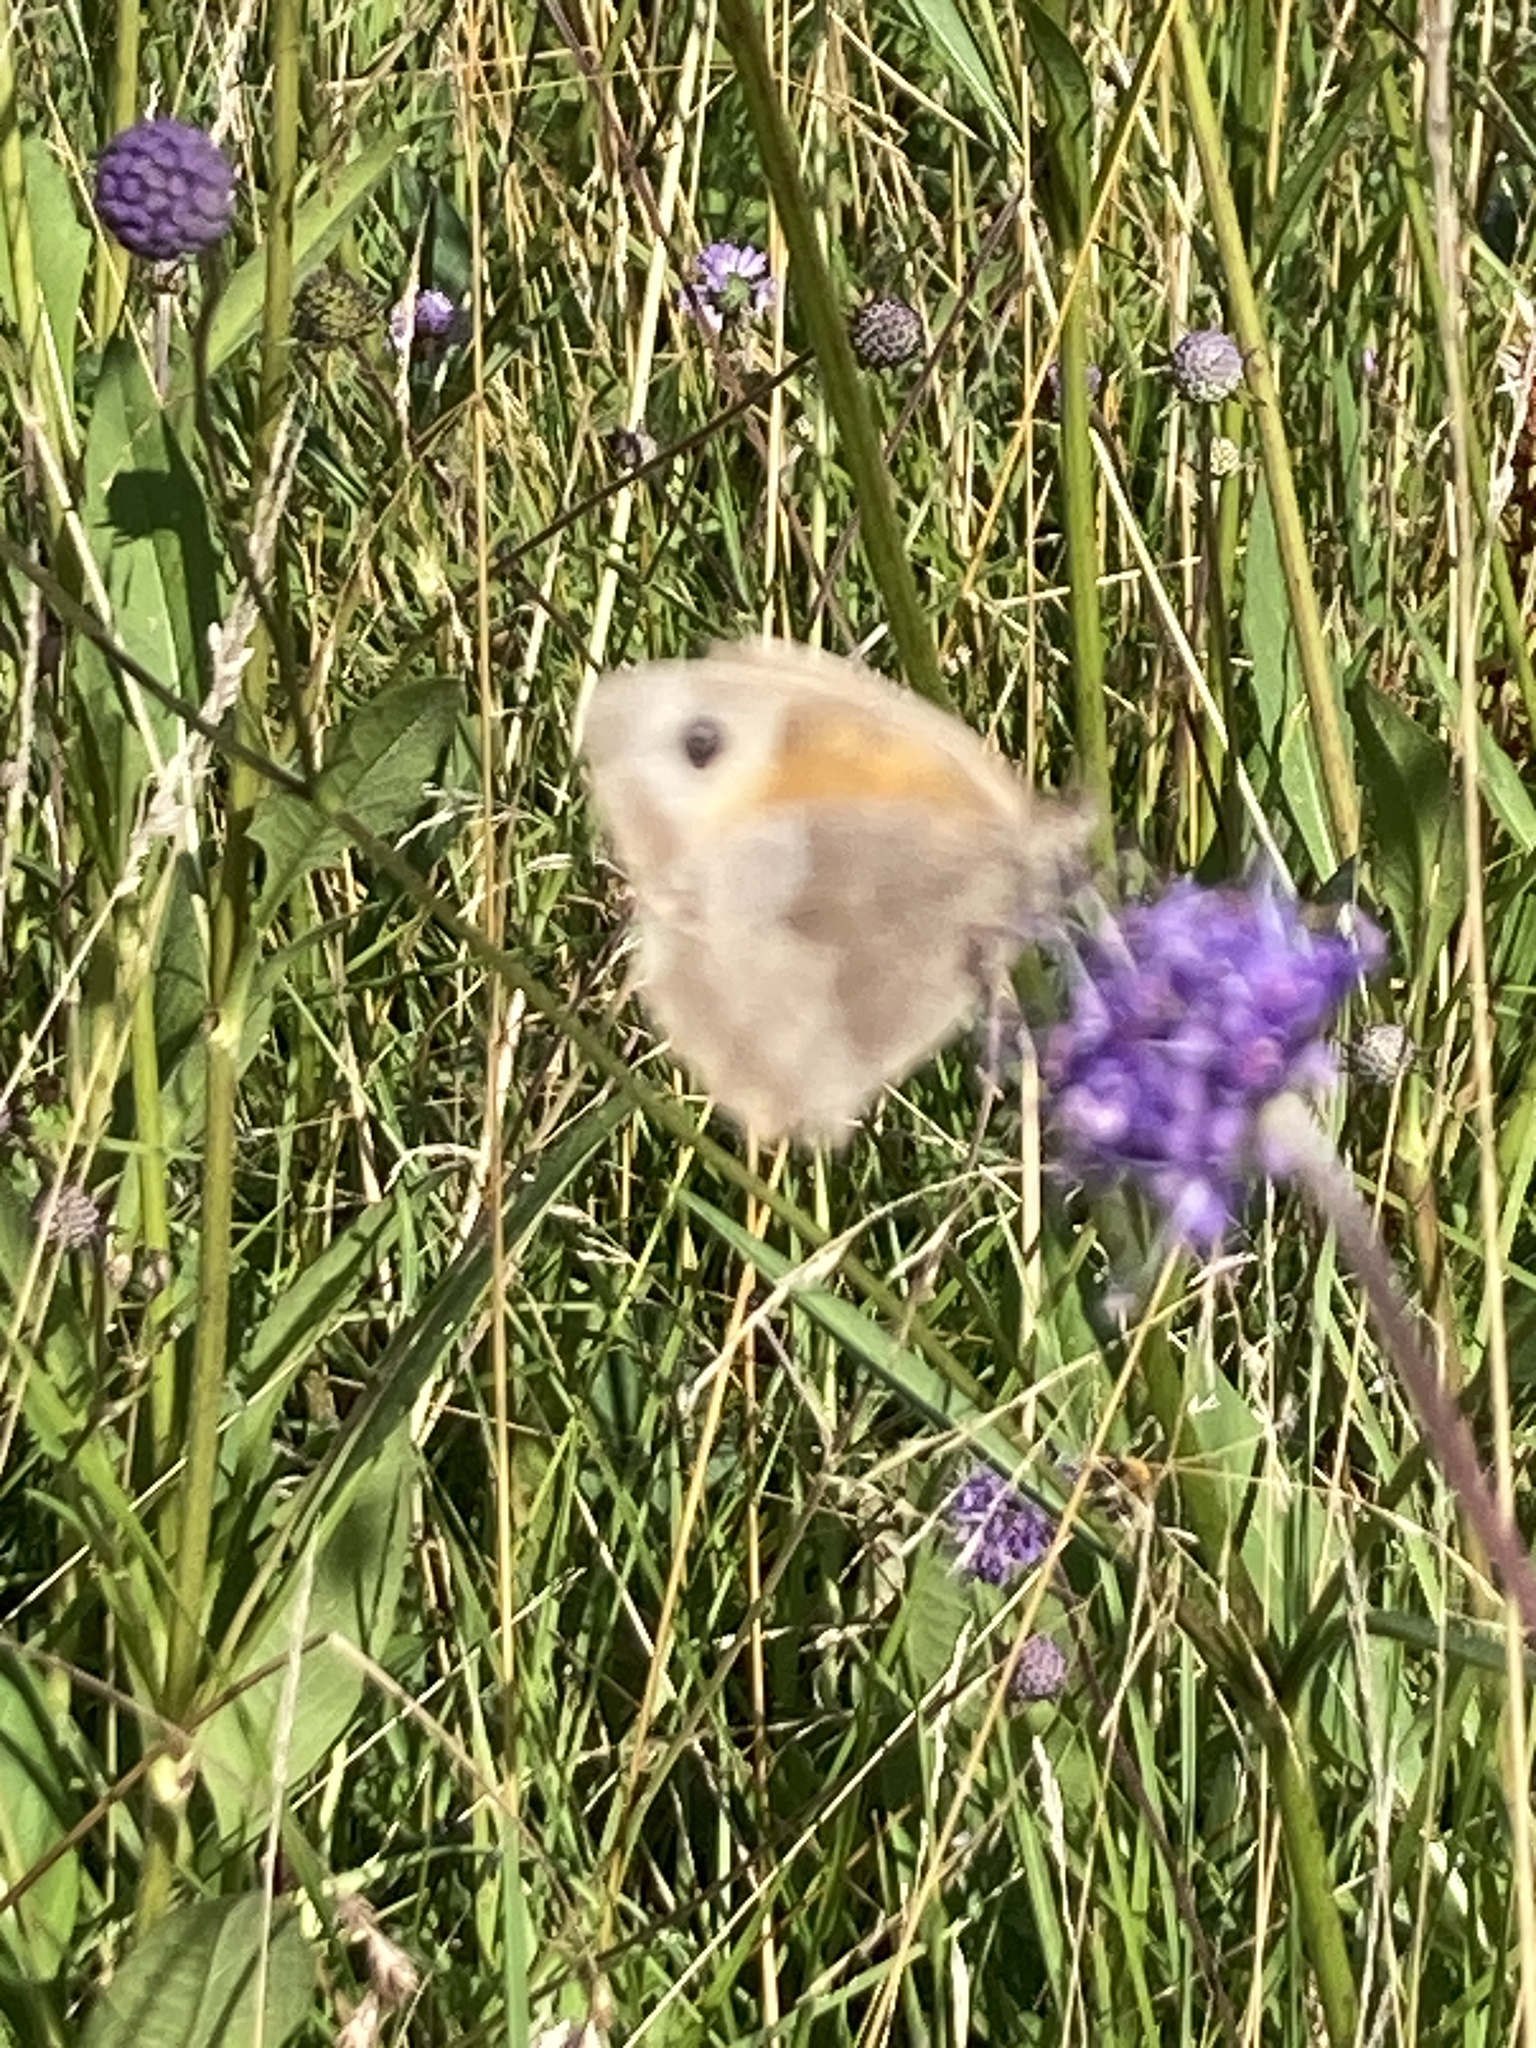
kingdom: Animalia
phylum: Arthropoda
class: Insecta
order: Lepidoptera
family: Nymphalidae
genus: Maniola
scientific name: Maniola jurtina
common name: Meadow brown
